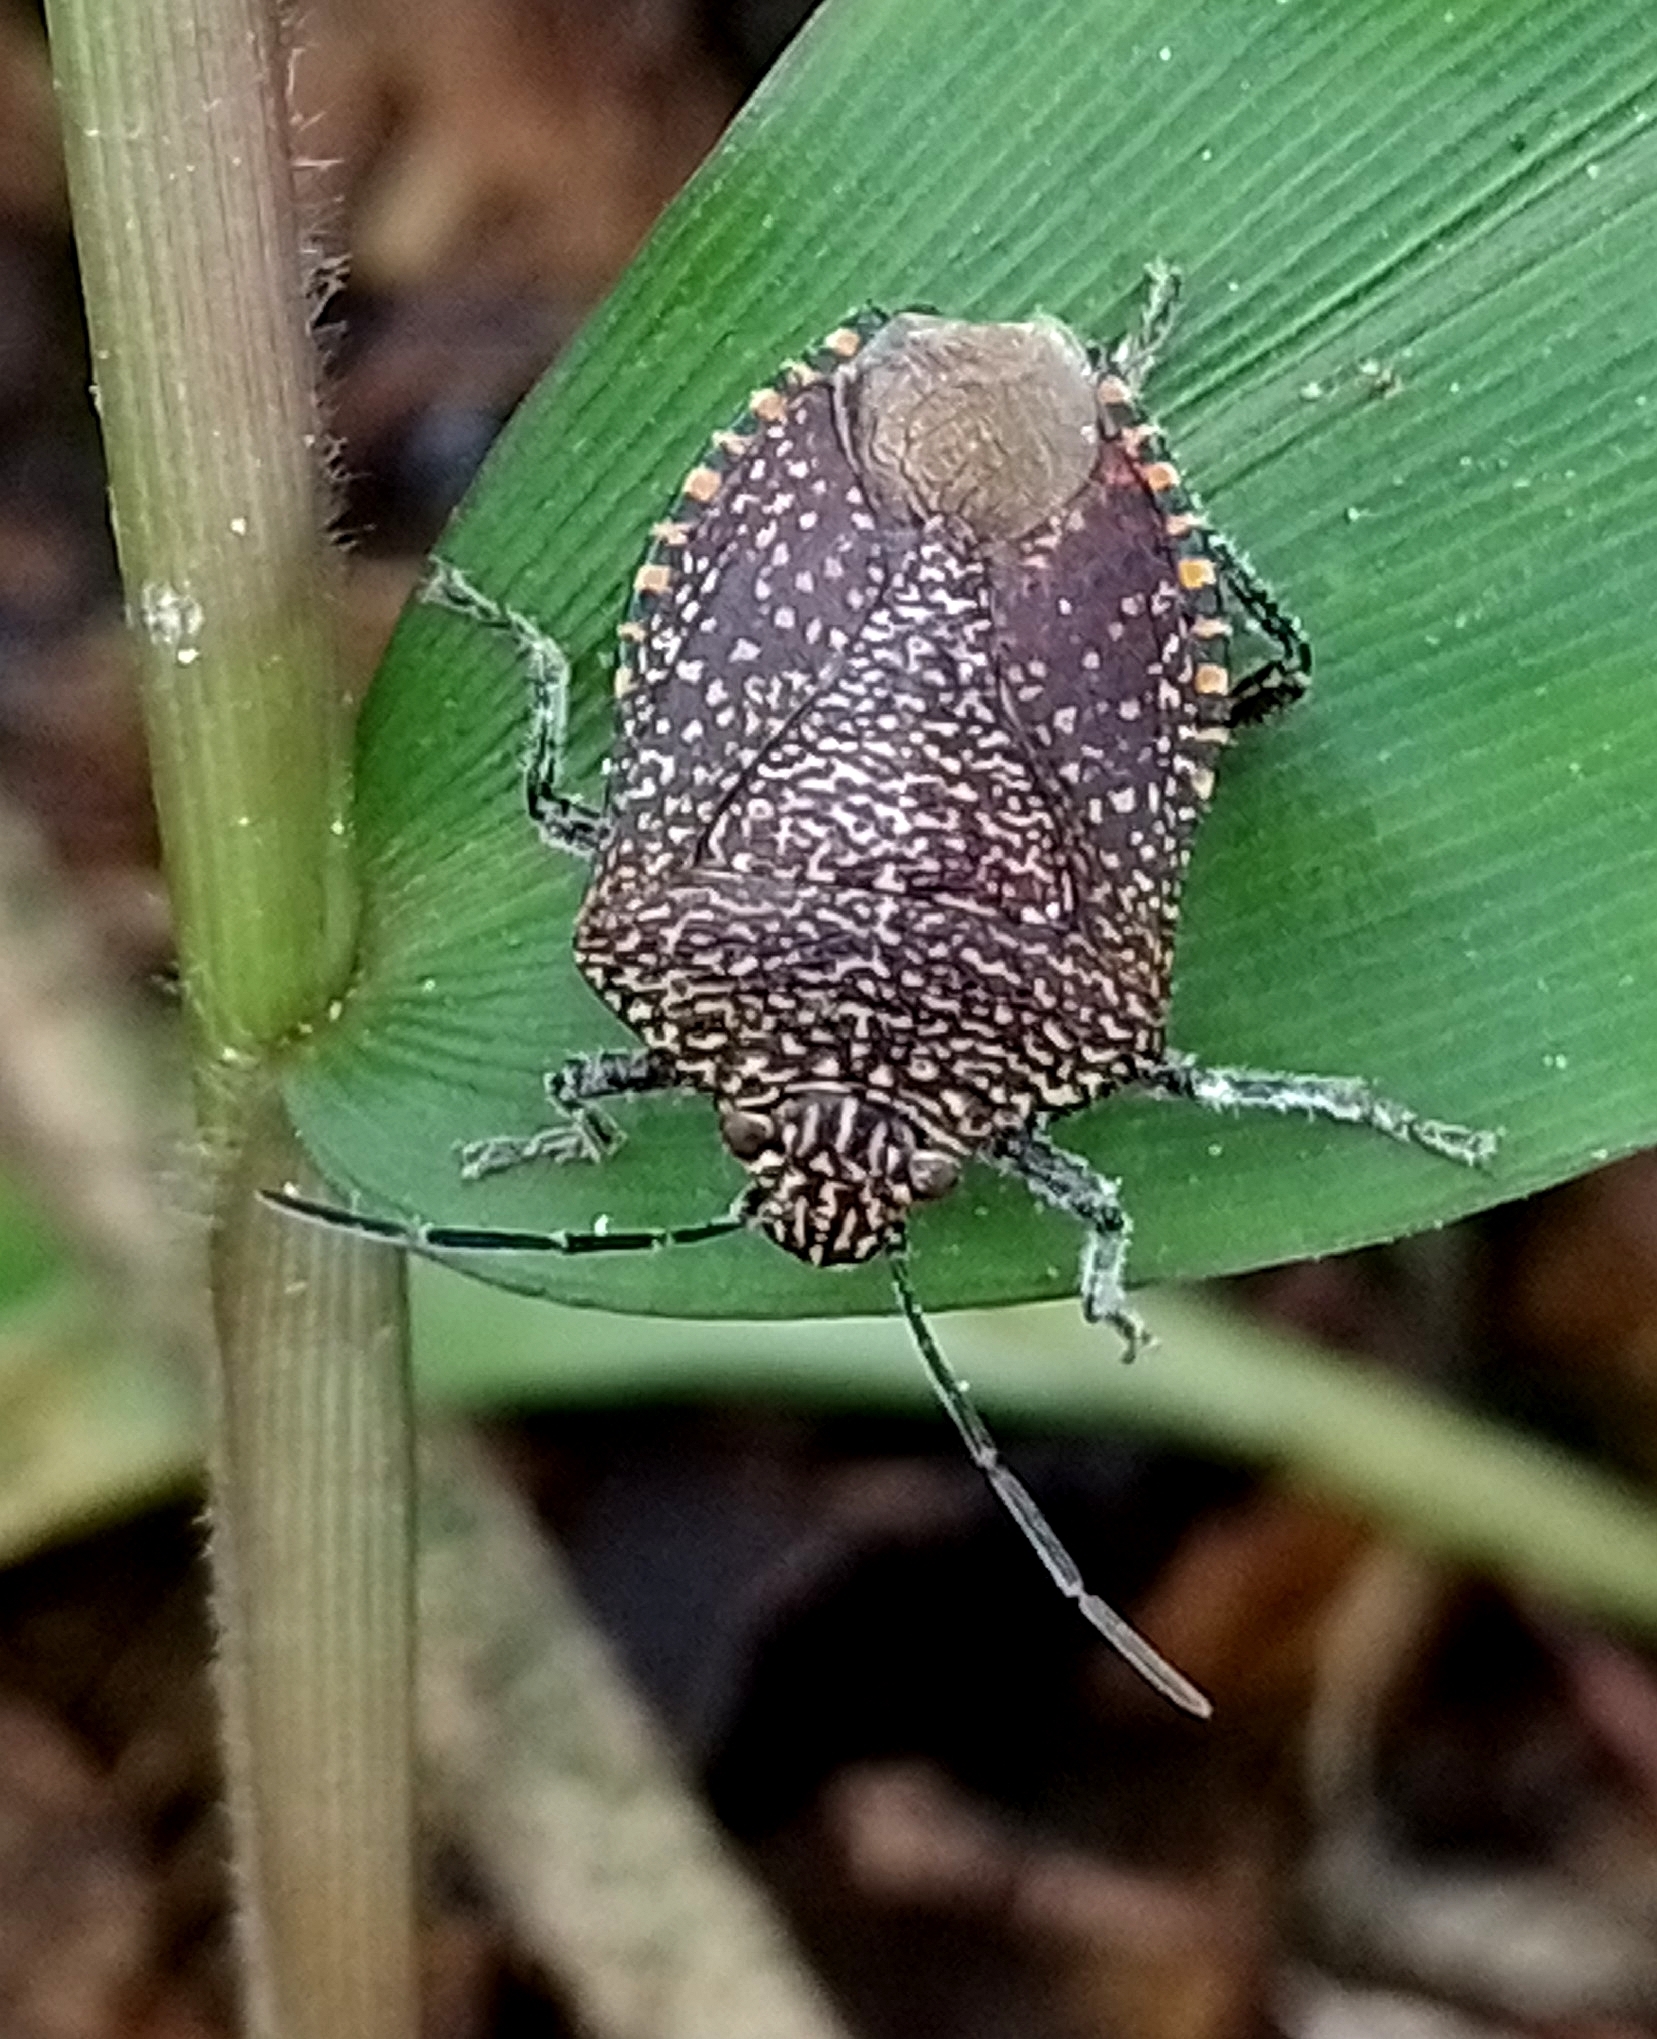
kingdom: Animalia
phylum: Arthropoda
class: Insecta
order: Hemiptera
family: Pentatomidae
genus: Pellaea
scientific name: Pellaea stictica
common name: Stink bug
